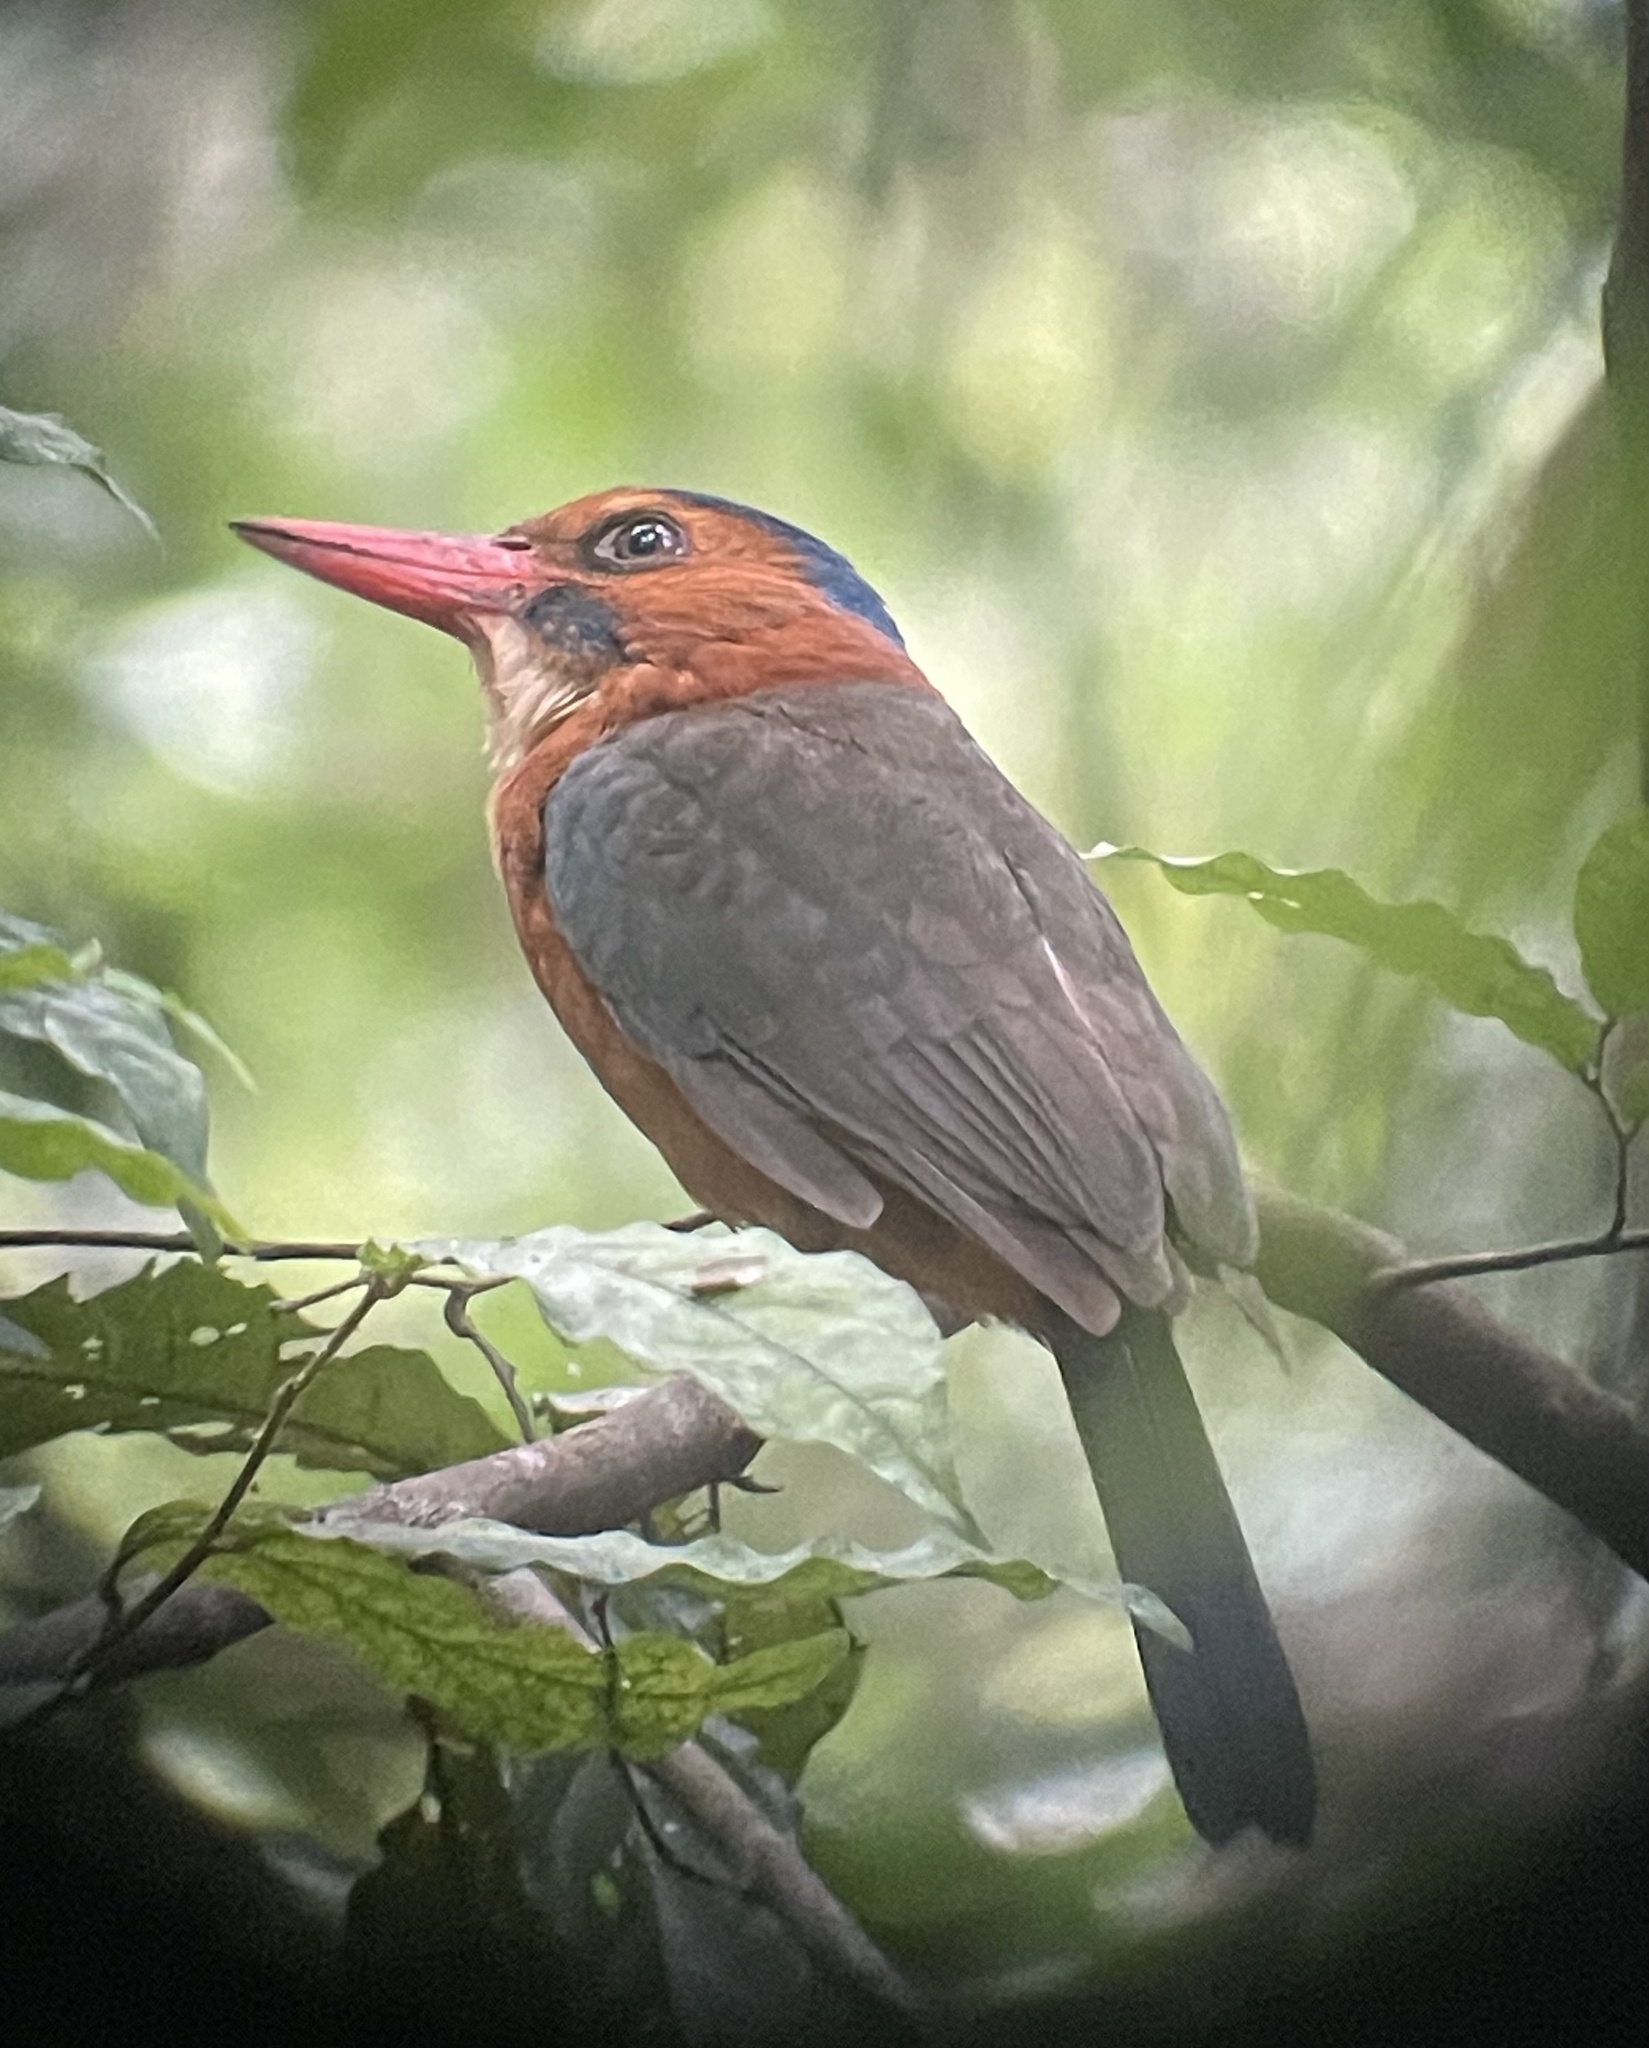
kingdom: Animalia
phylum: Chordata
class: Aves
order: Coraciiformes
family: Alcedinidae
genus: Actenoides
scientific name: Actenoides monachus
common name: Green-backed kingfisher
